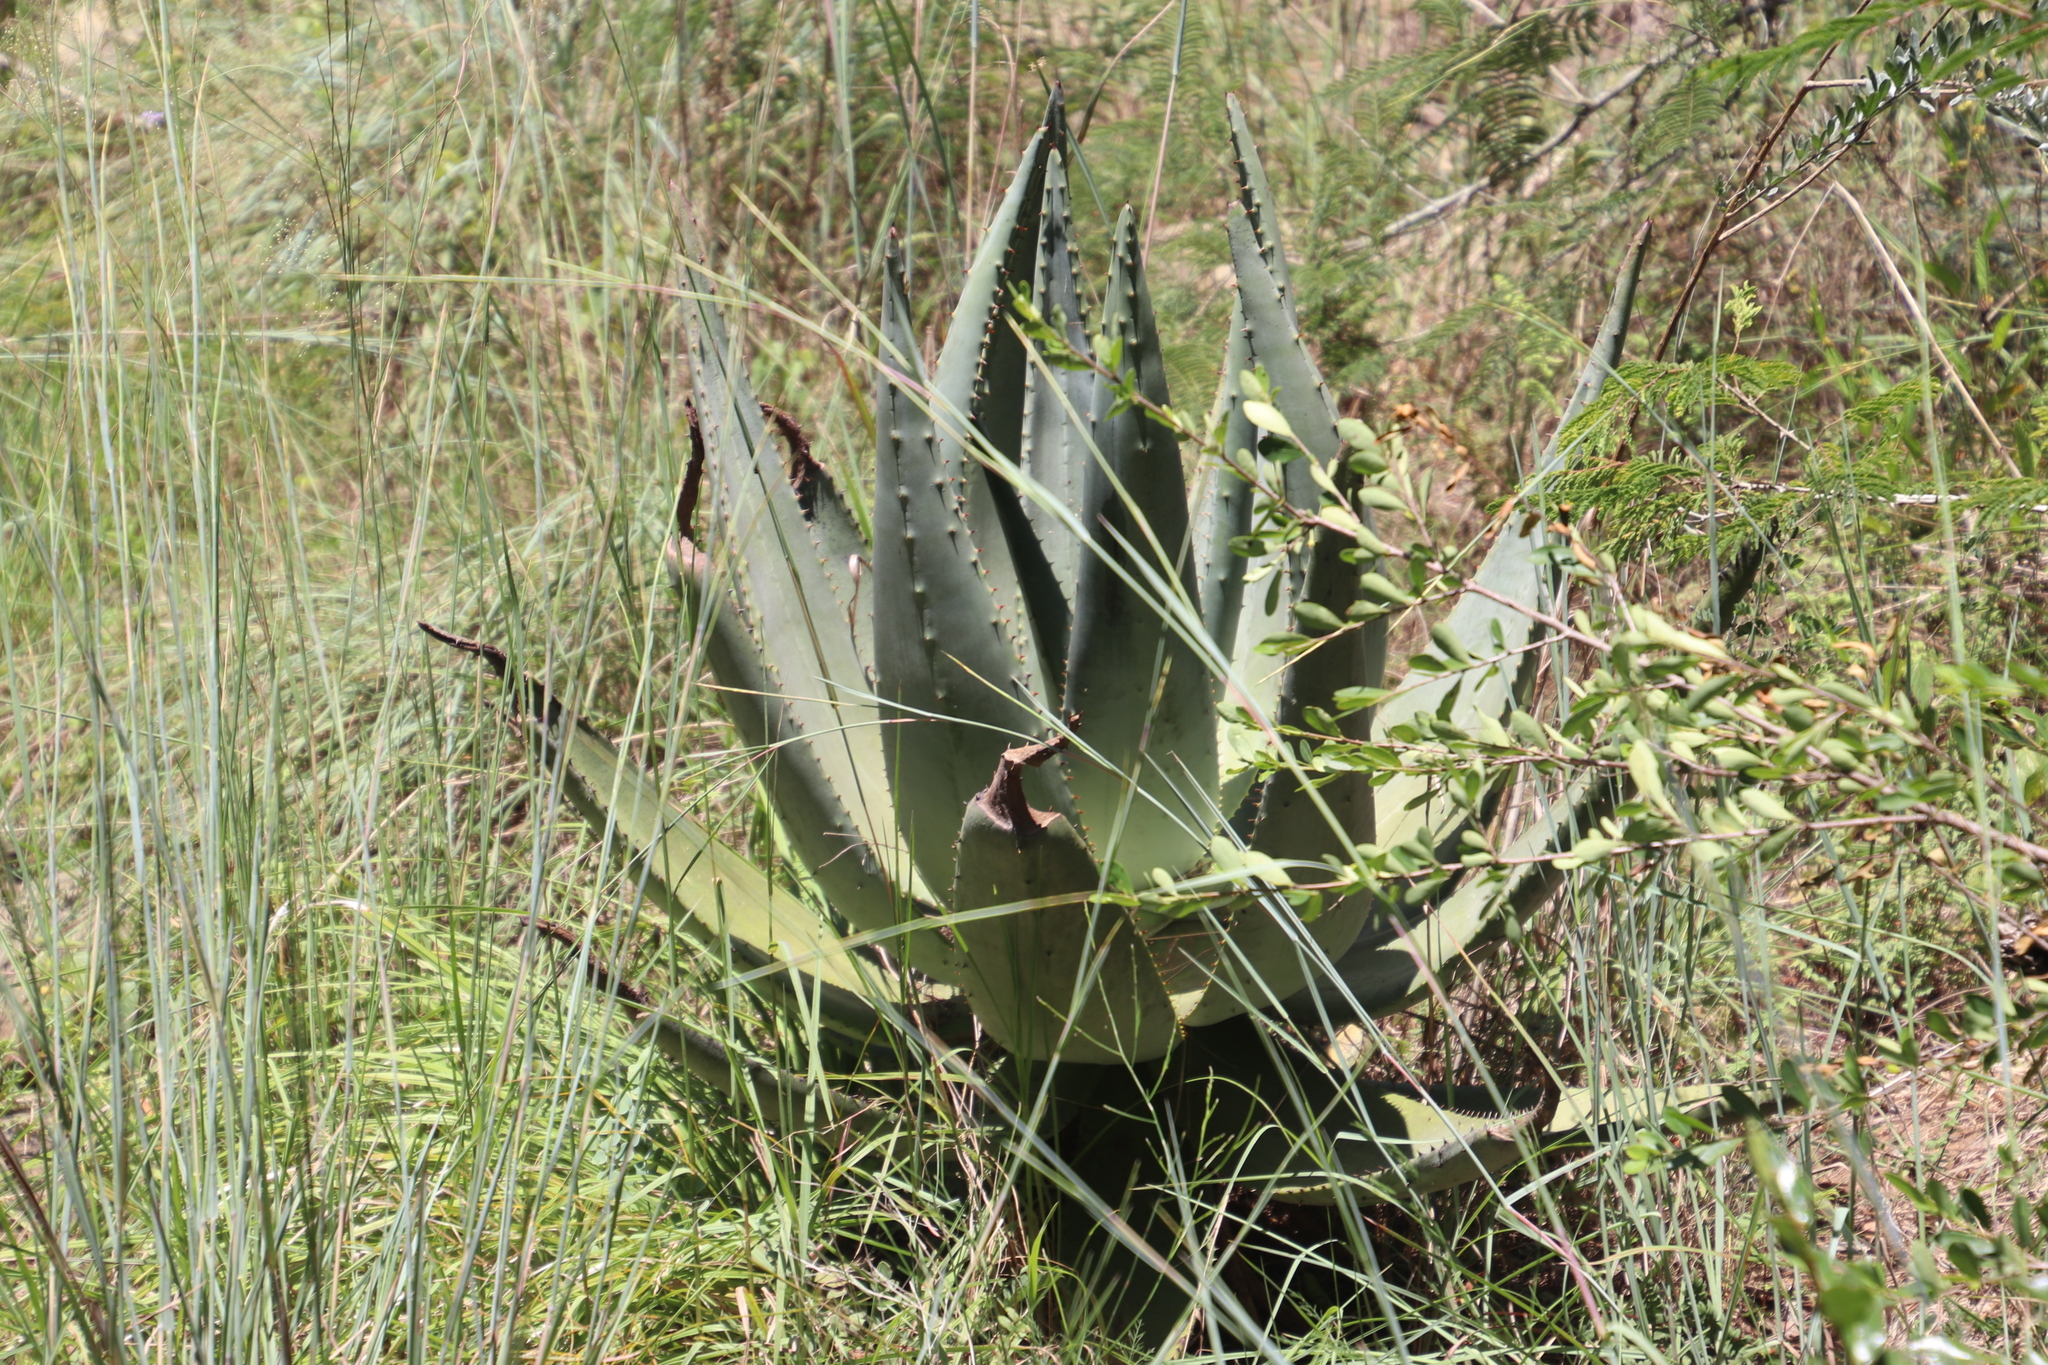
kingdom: Plantae
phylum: Tracheophyta
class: Liliopsida
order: Asparagales
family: Asphodelaceae
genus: Aloe
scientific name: Aloe marlothii
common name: Flat-flowered aloe
